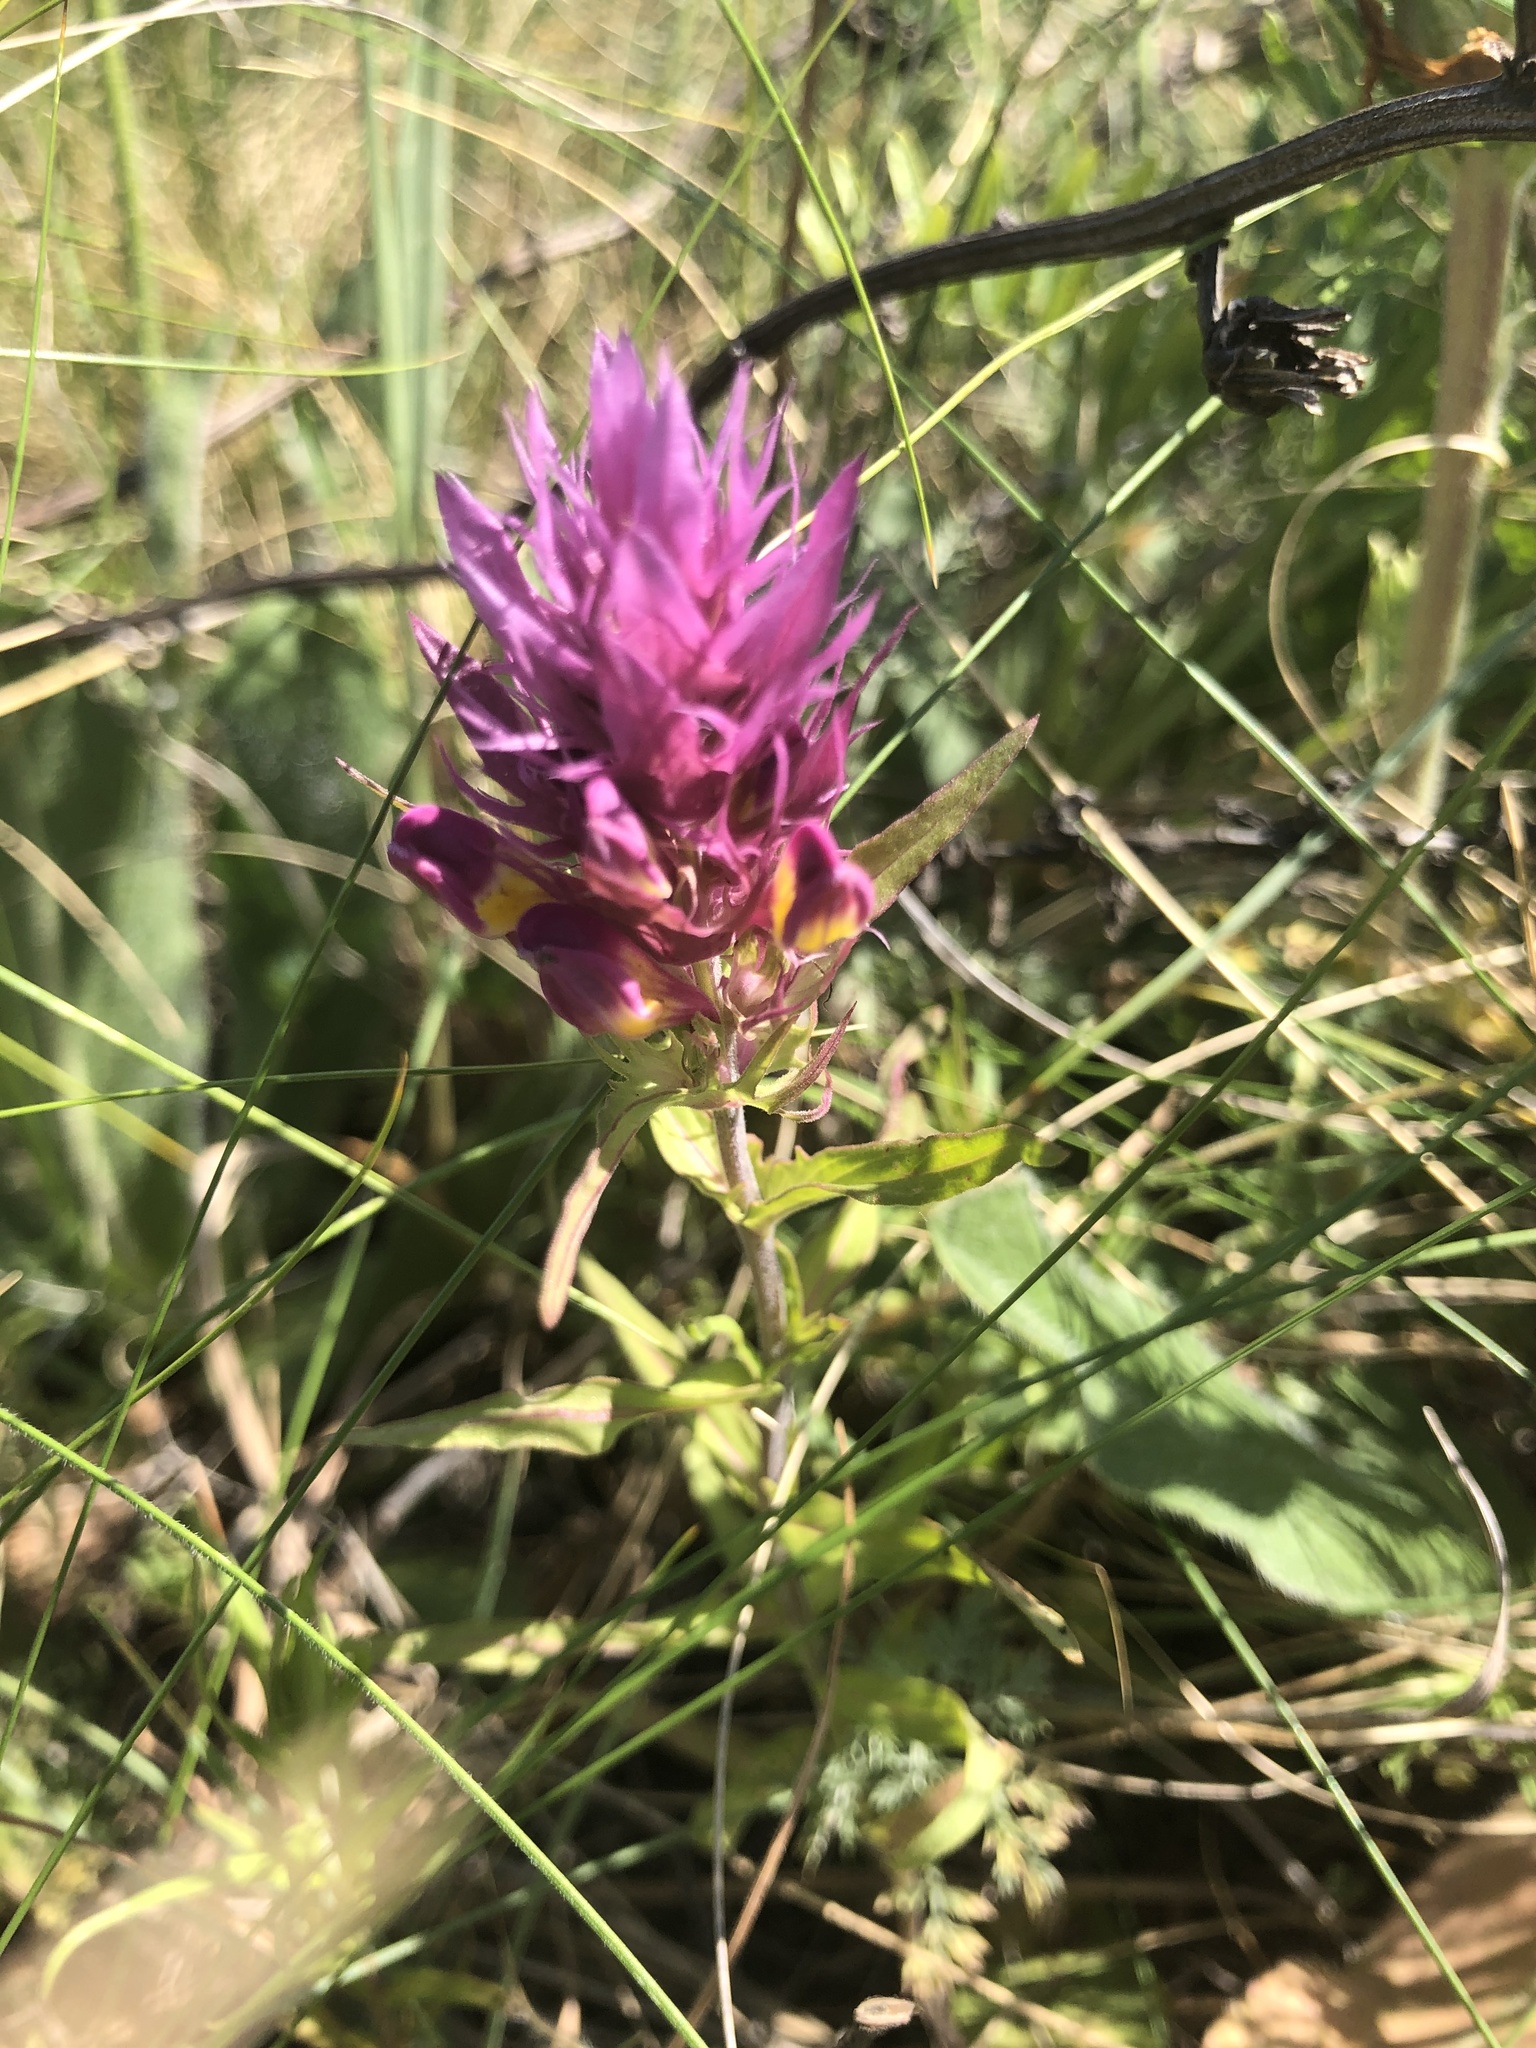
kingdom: Plantae
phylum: Tracheophyta
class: Magnoliopsida
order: Lamiales
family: Orobanchaceae
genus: Melampyrum
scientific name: Melampyrum arvense
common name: Field cow-wheat
